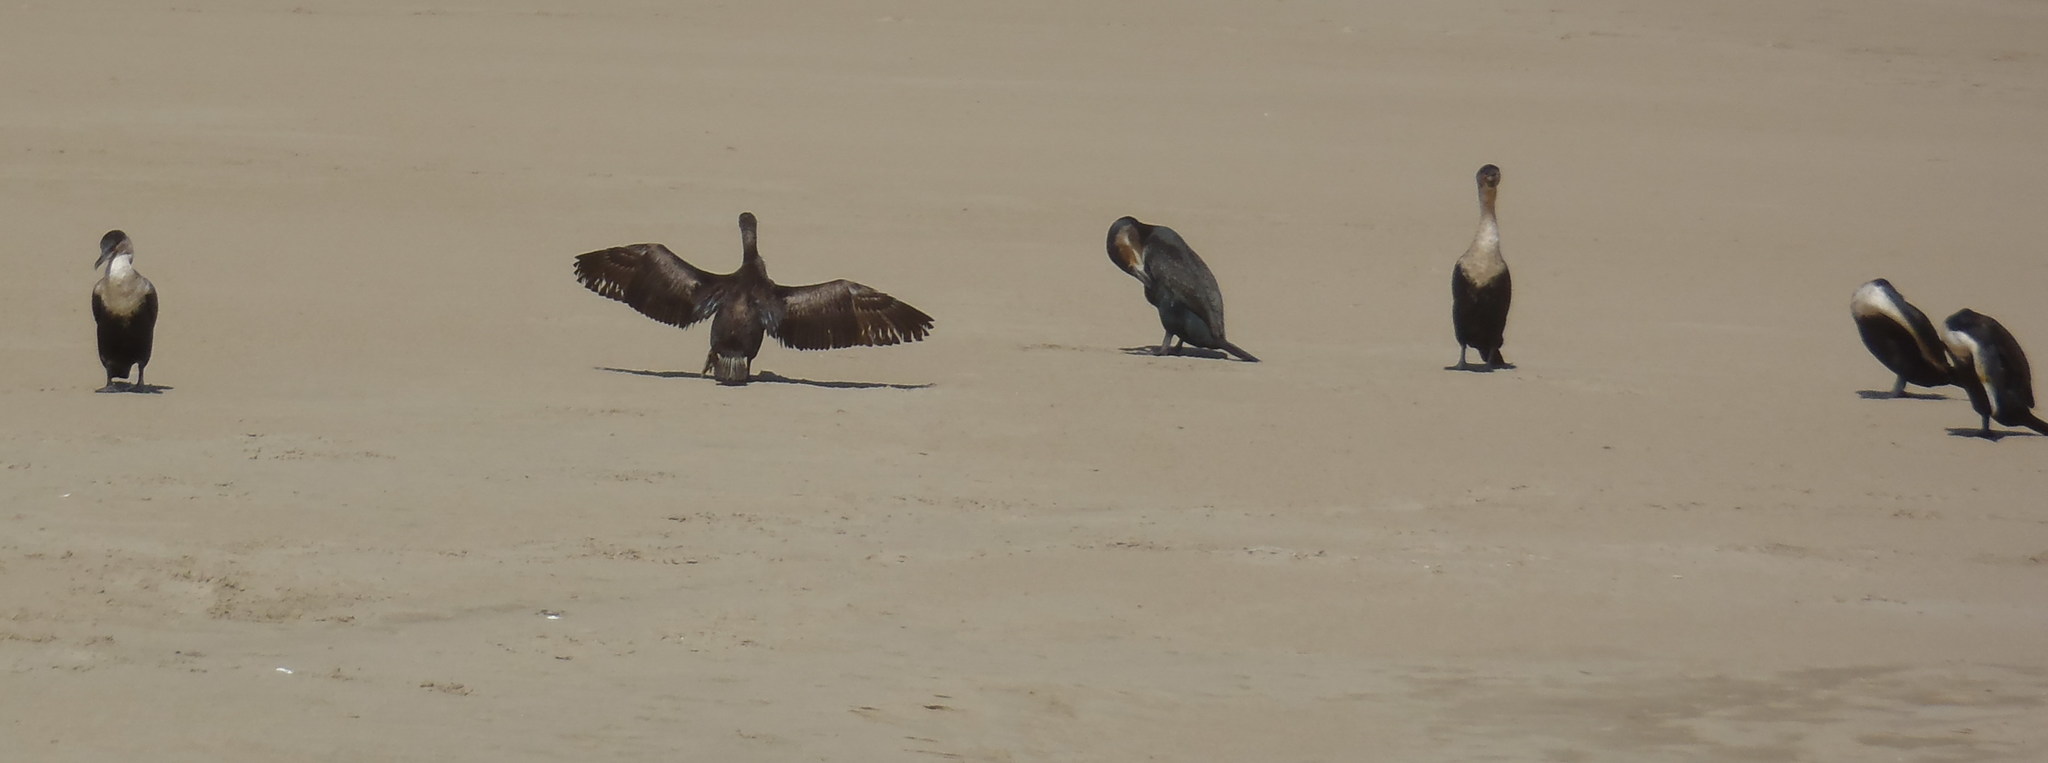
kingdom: Animalia
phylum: Chordata
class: Aves
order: Suliformes
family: Phalacrocoracidae
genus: Phalacrocorax
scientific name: Phalacrocorax carbo
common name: Great cormorant
